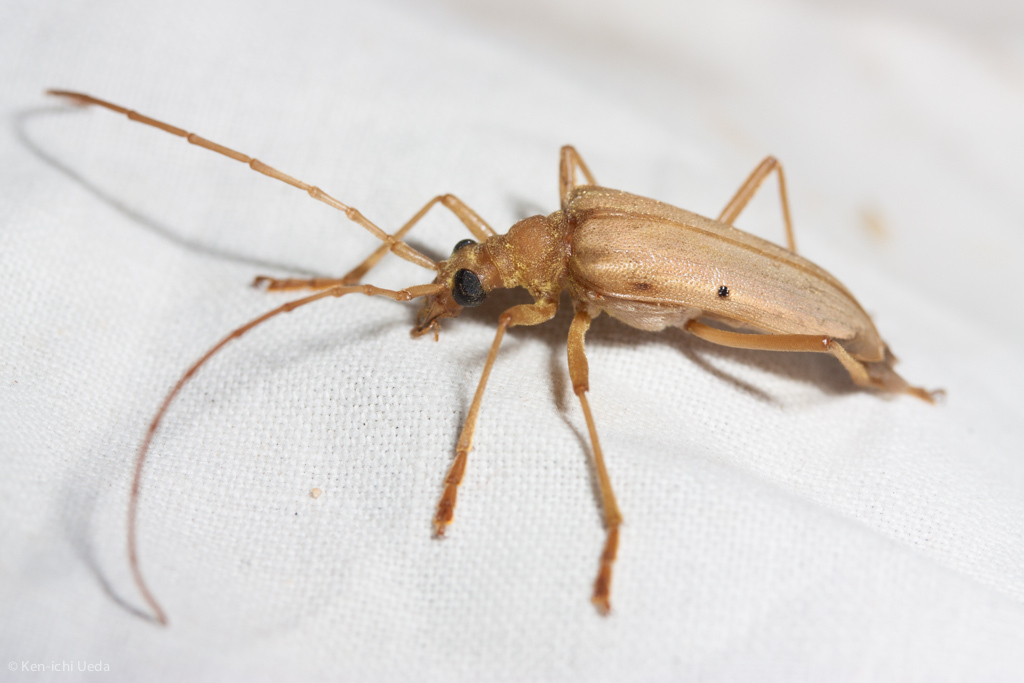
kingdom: Animalia
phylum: Arthropoda
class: Insecta
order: Coleoptera
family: Cerambycidae
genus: Centrodera
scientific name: Centrodera spurca
